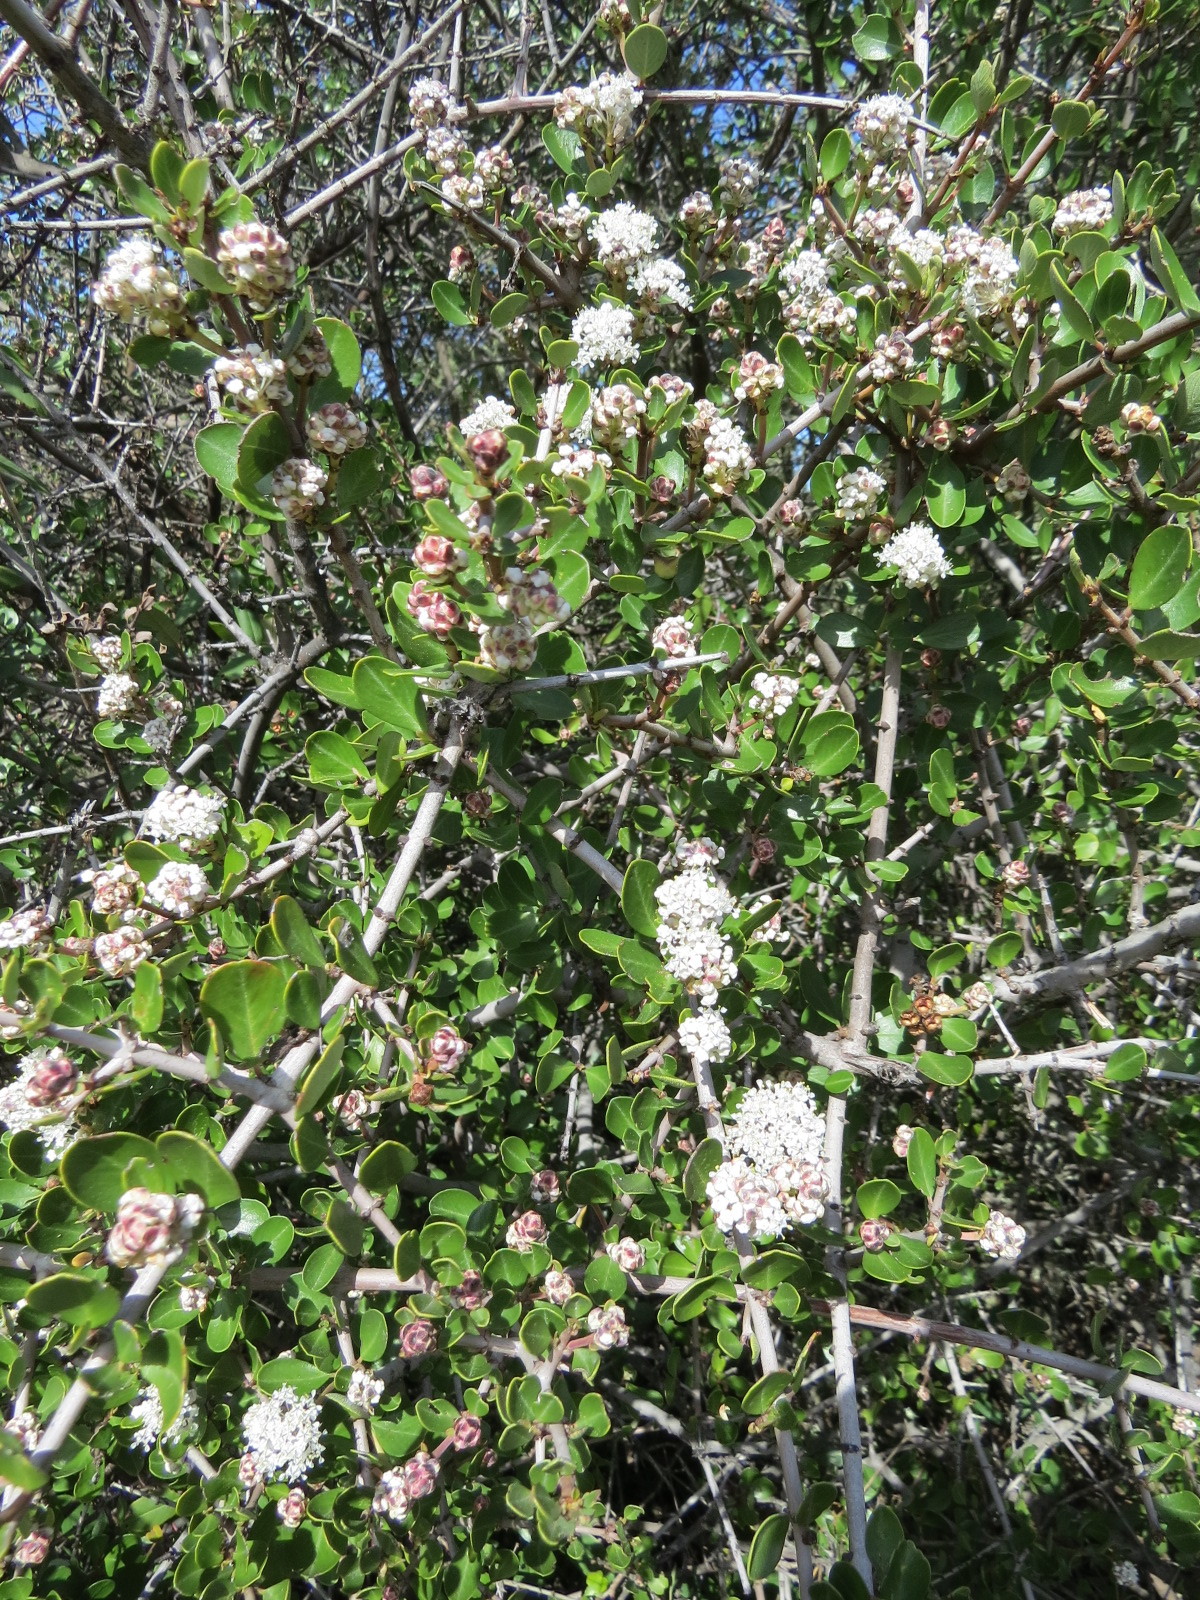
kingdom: Plantae
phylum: Tracheophyta
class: Magnoliopsida
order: Rosales
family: Rhamnaceae
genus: Ceanothus
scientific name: Ceanothus cuneatus
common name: Cuneate ceanothus
